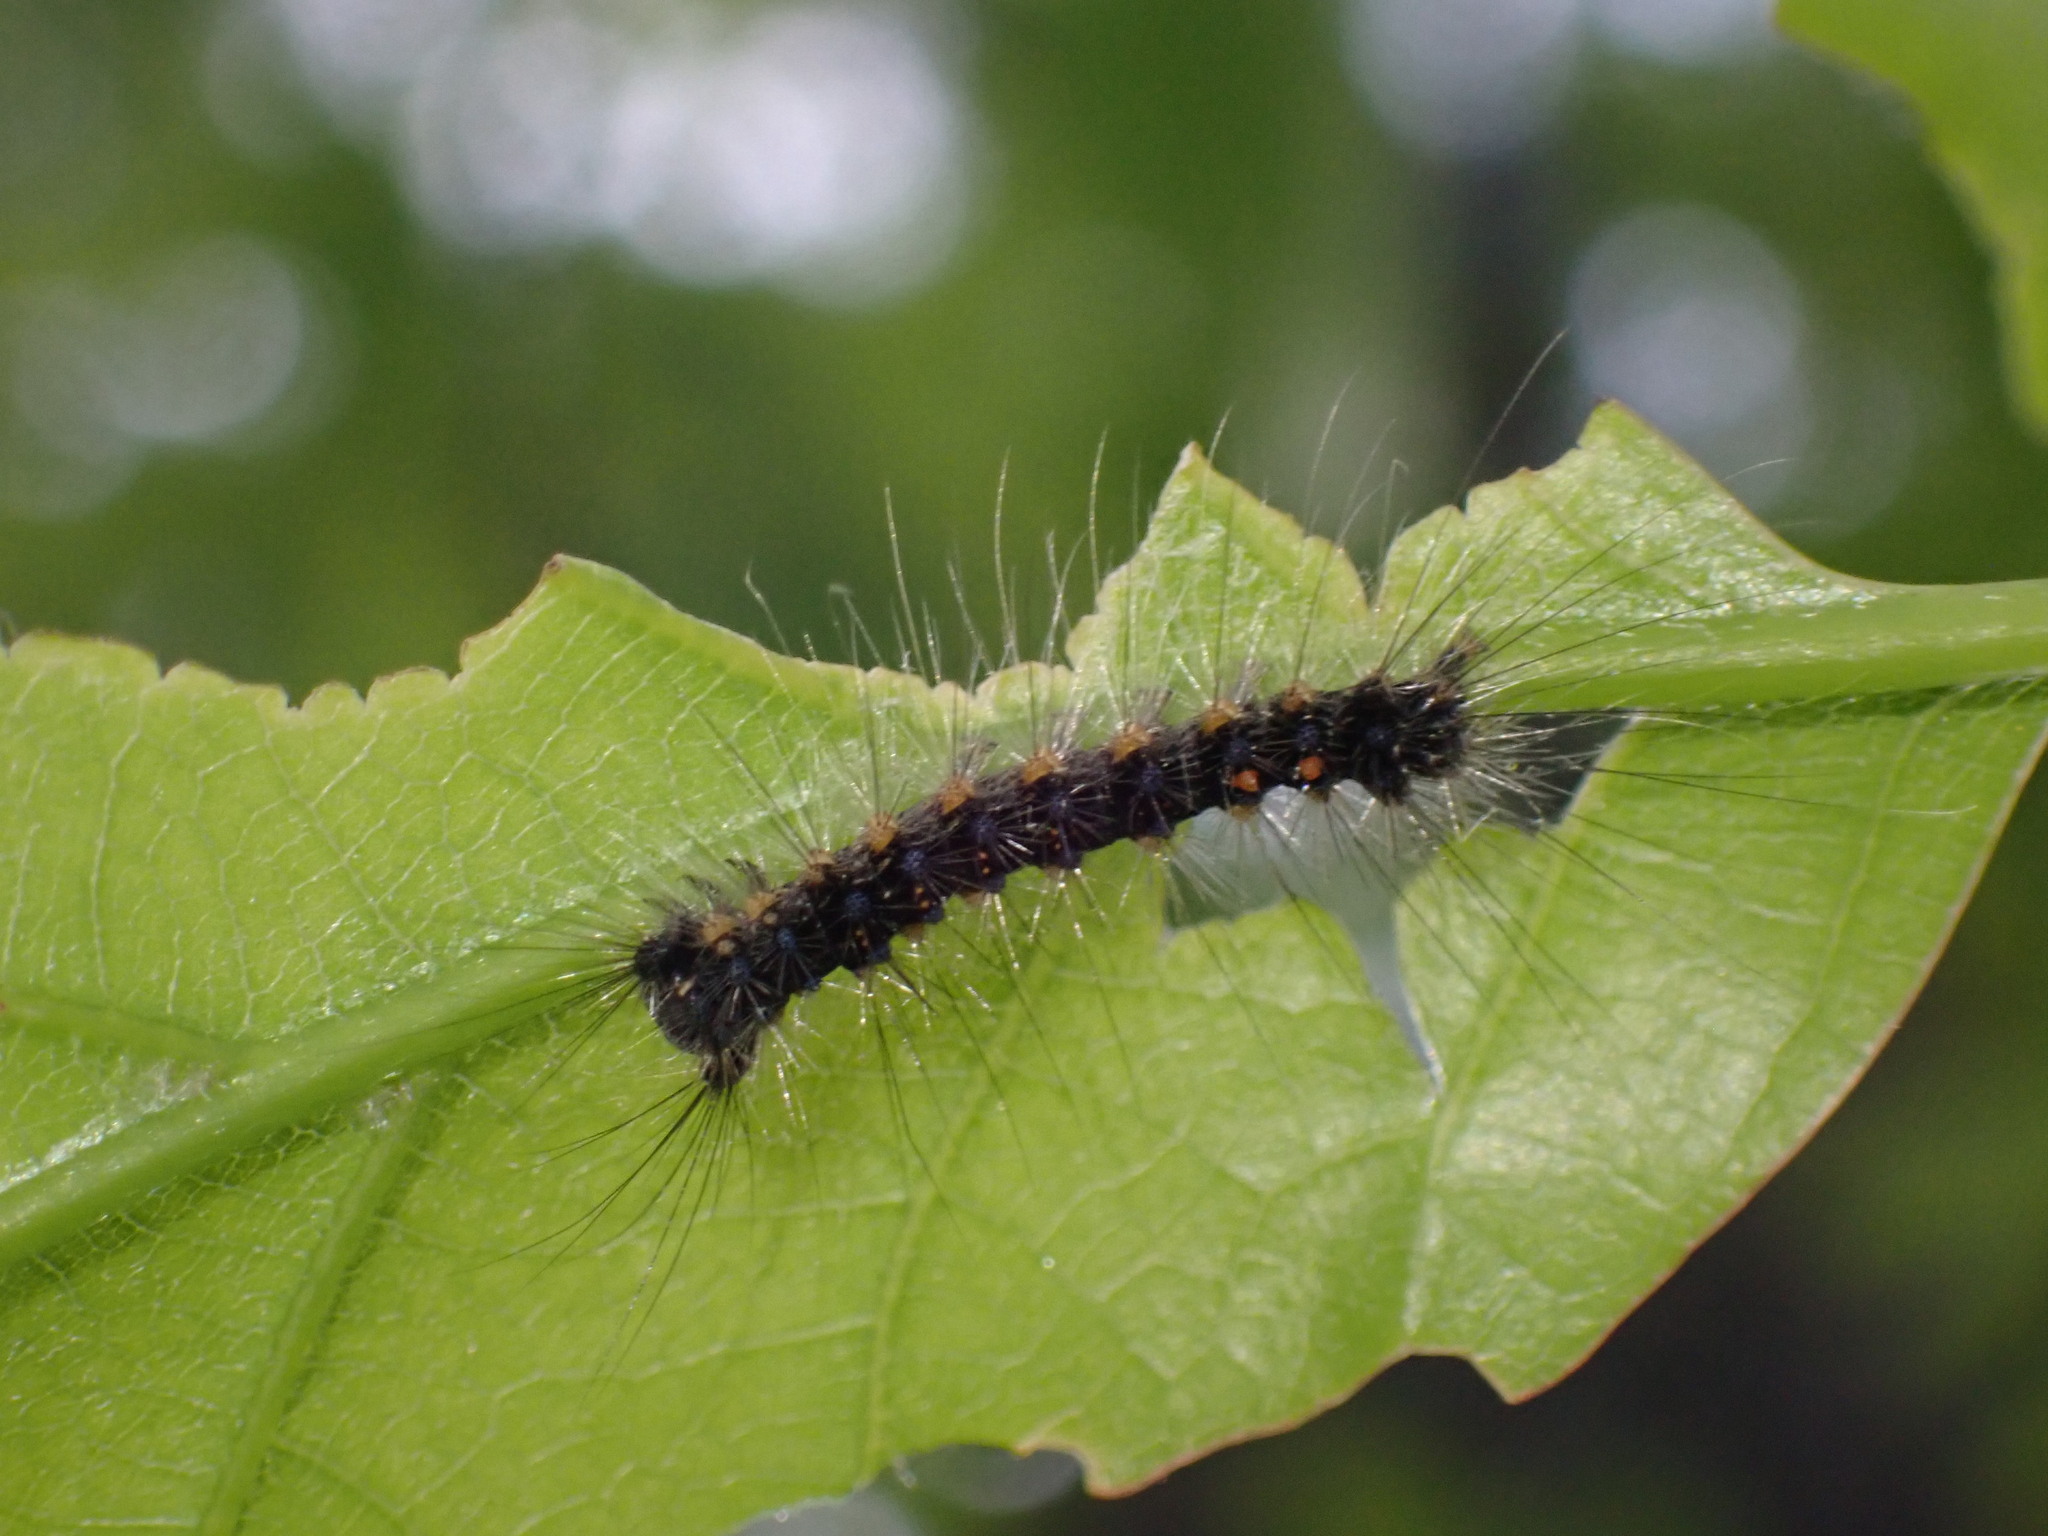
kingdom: Animalia
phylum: Arthropoda
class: Insecta
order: Lepidoptera
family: Erebidae
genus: Lymantria
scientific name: Lymantria dispar
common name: Gypsy moth
